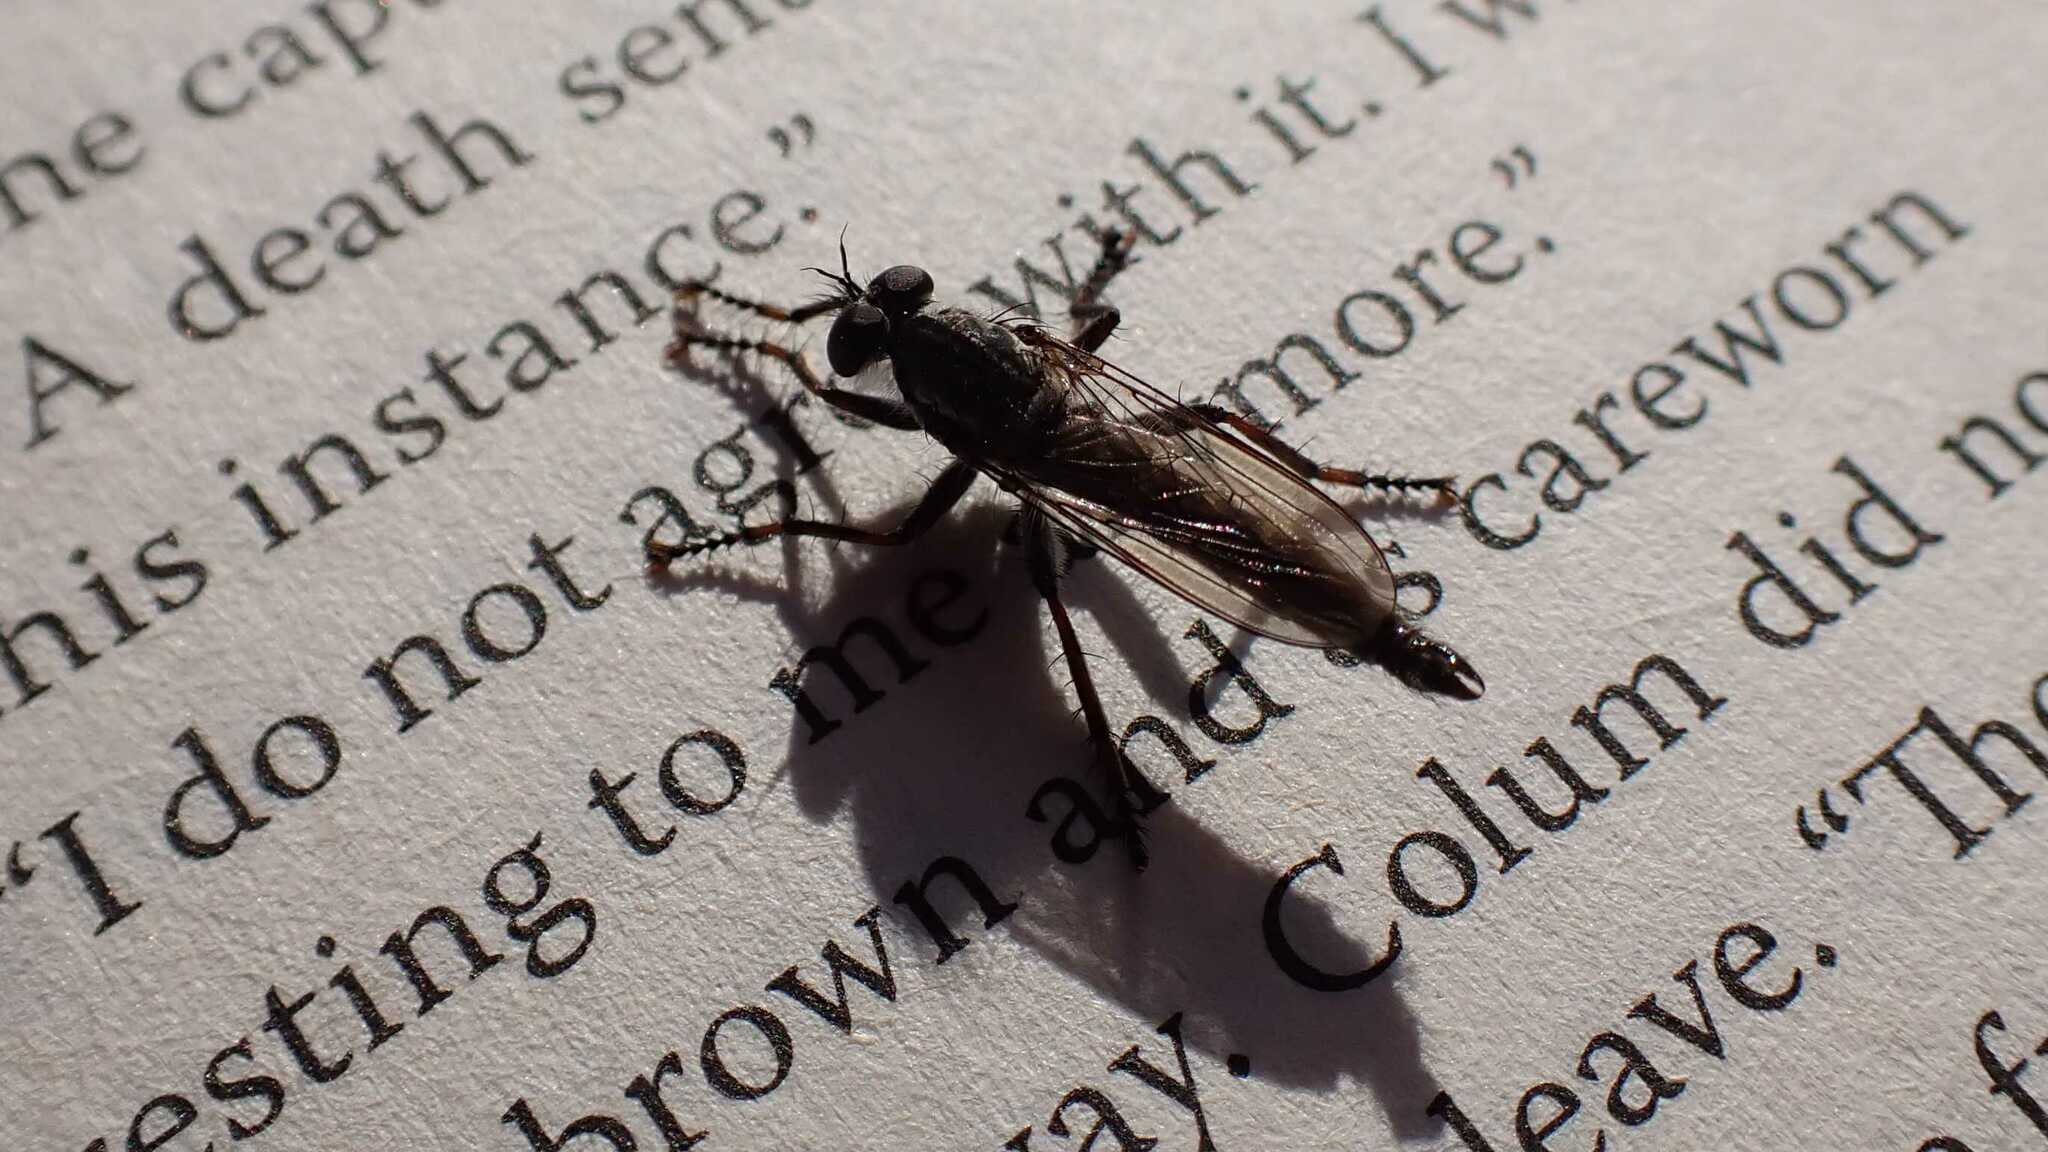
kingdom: Animalia
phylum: Arthropoda
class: Insecta
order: Diptera
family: Asilidae
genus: Machimus
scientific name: Machimus atricapillus
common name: Kite-tailed robberfly
